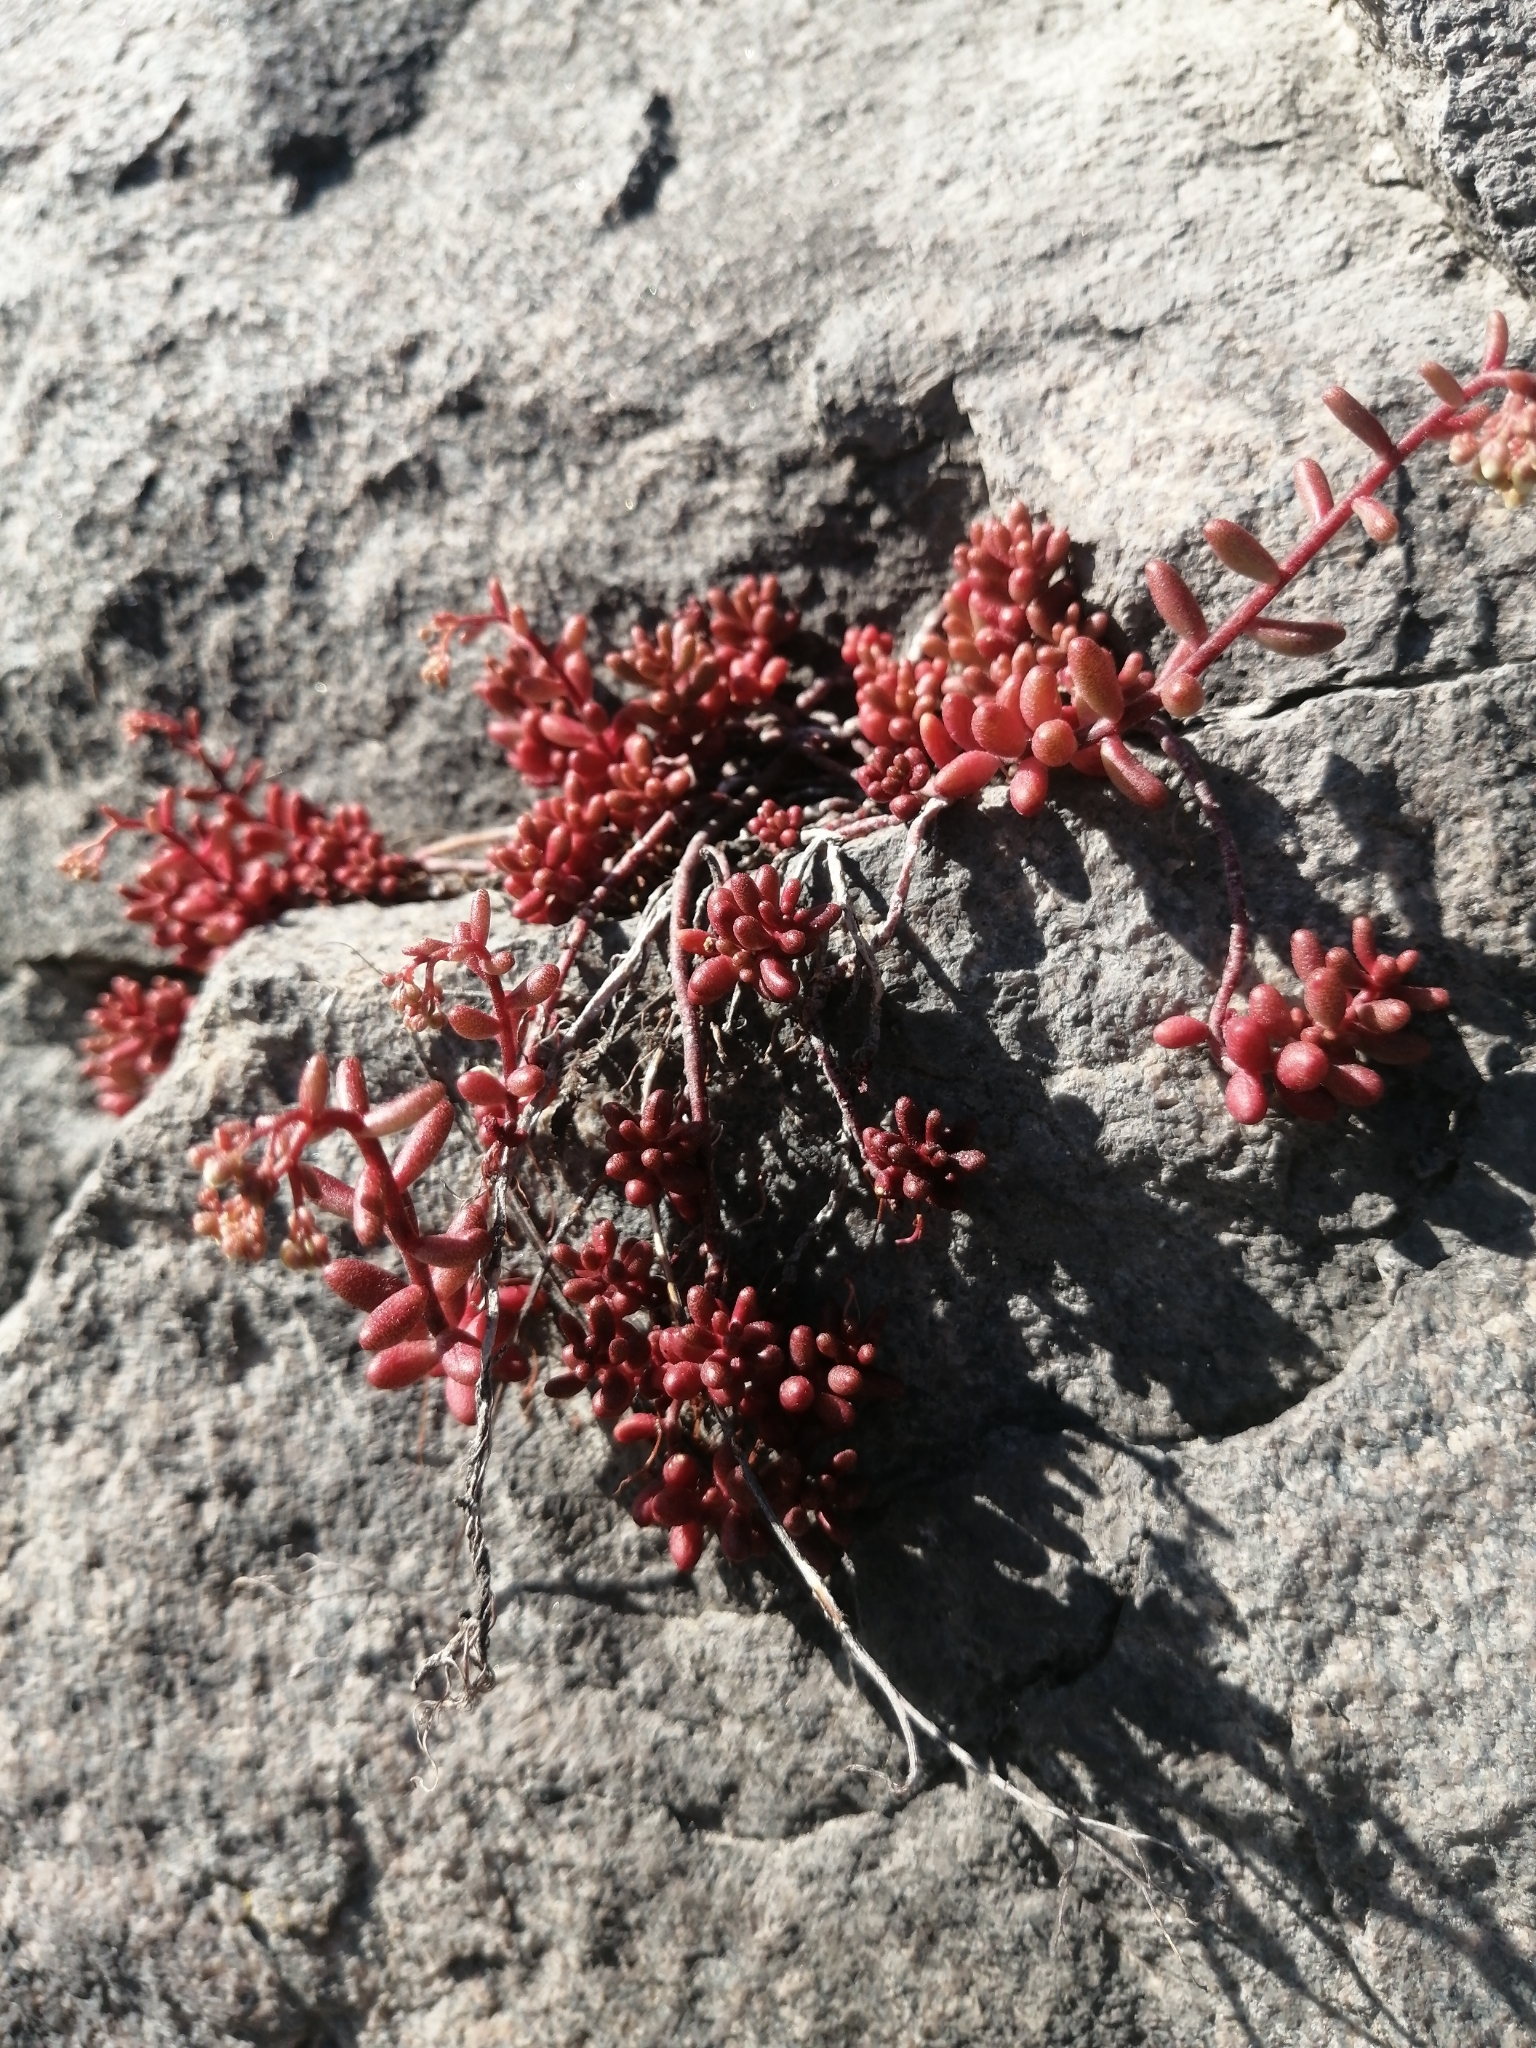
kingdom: Plantae
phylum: Tracheophyta
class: Magnoliopsida
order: Saxifragales
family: Crassulaceae
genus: Sedum
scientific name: Sedum album
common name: White stonecrop
